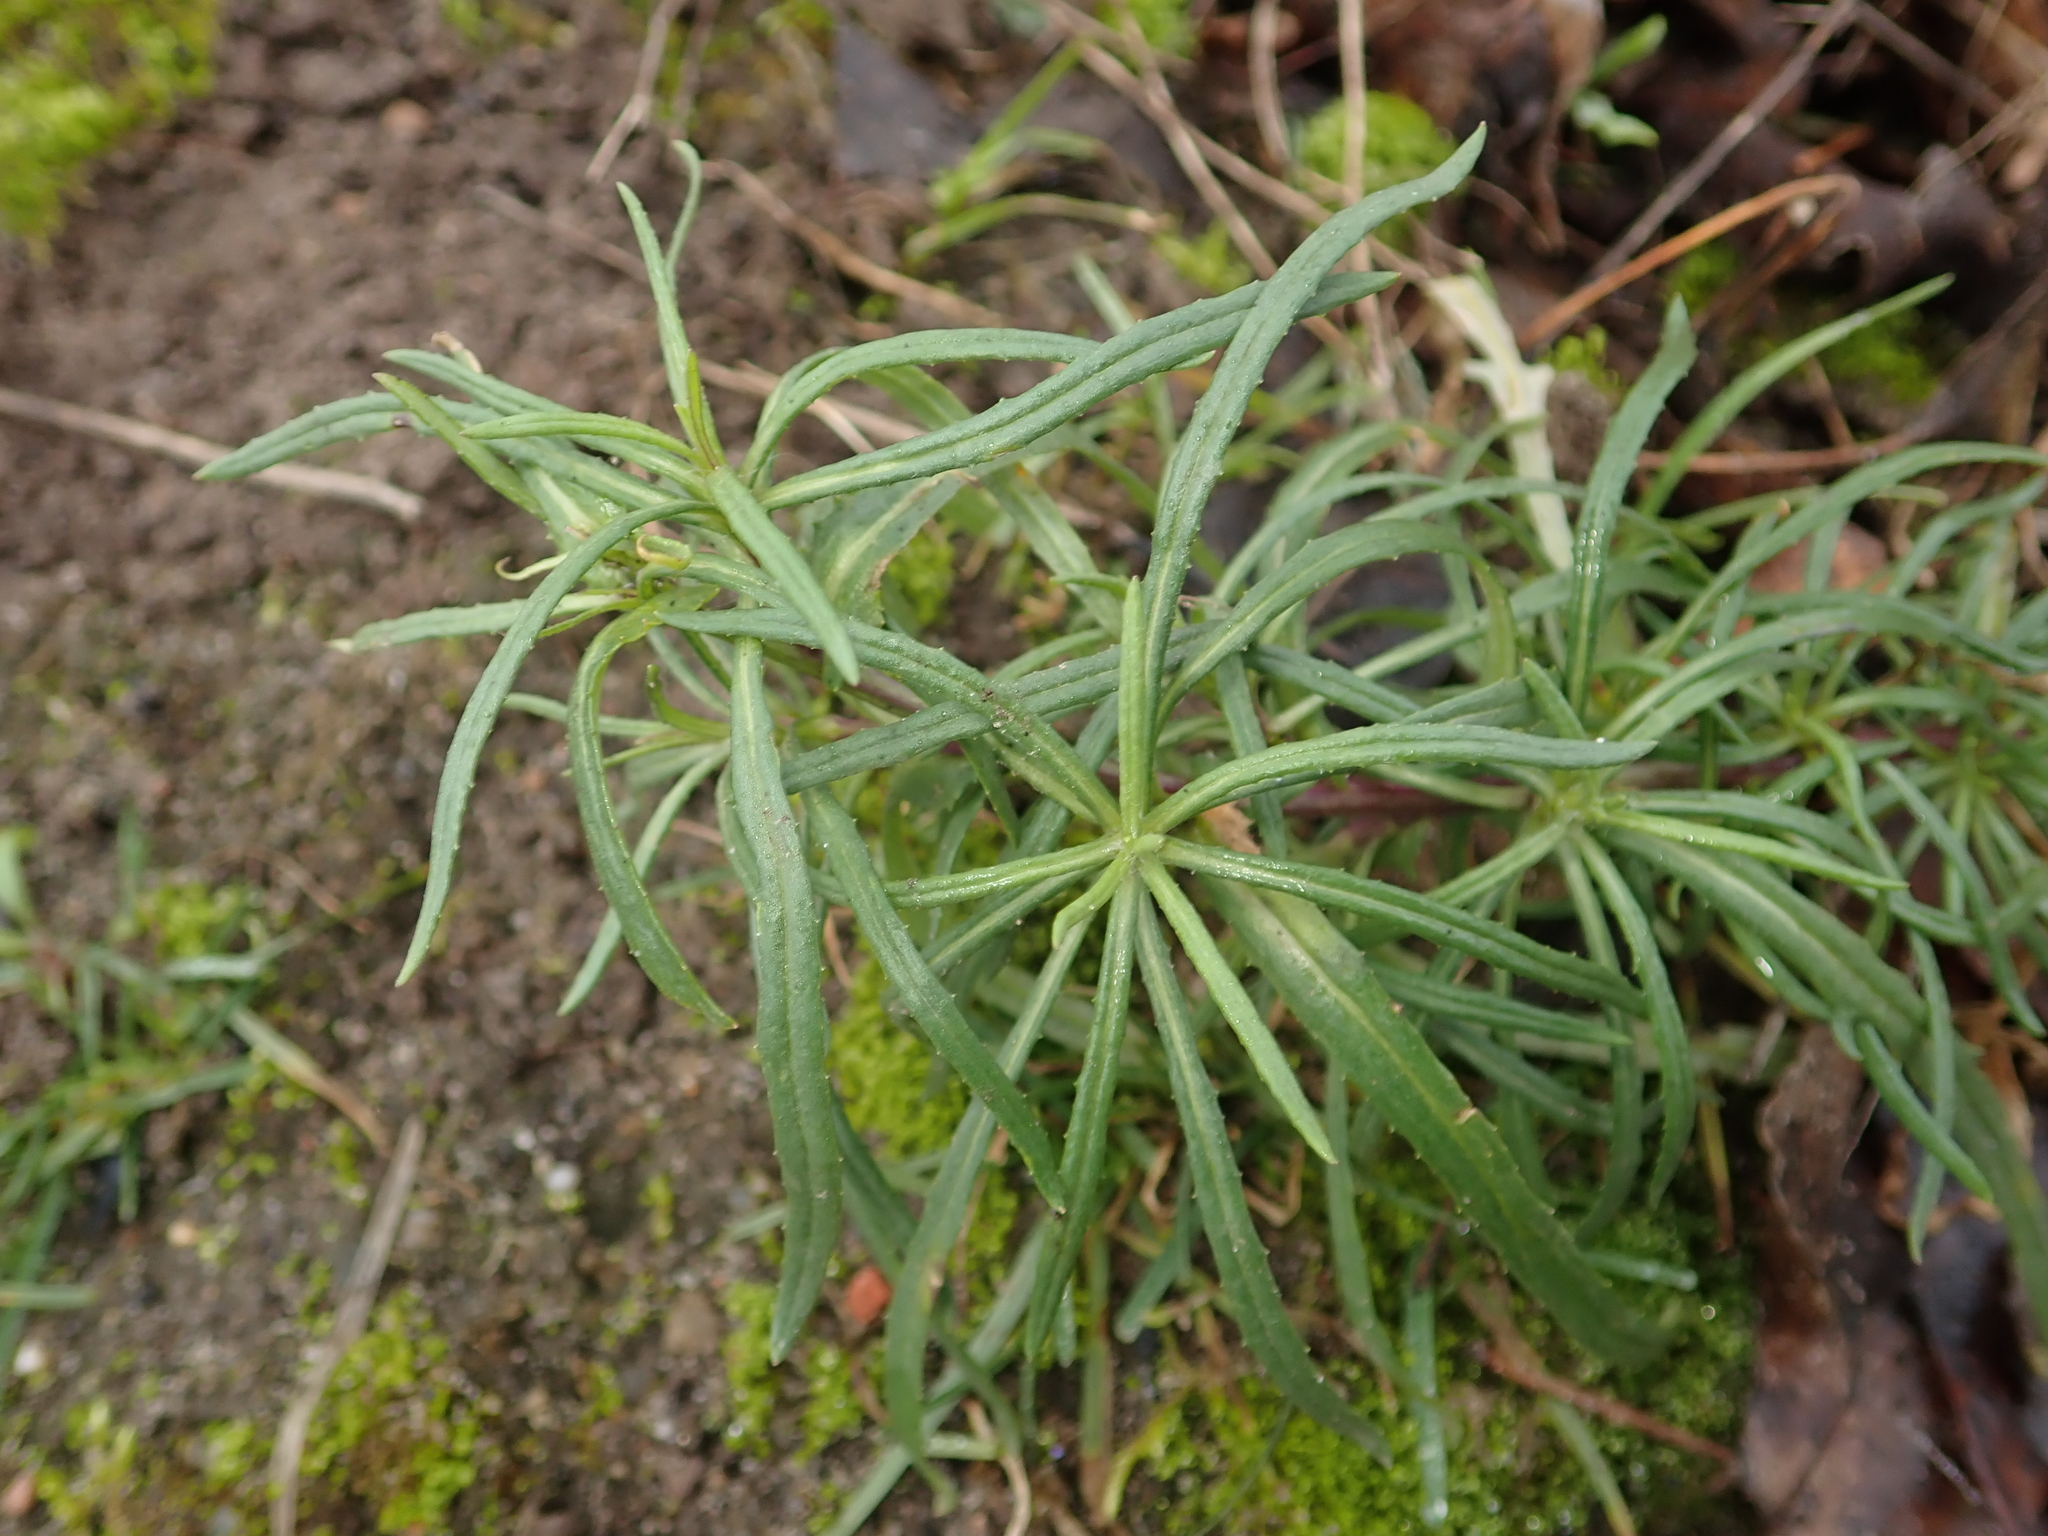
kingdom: Plantae
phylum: Tracheophyta
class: Magnoliopsida
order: Asterales
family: Asteraceae
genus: Senecio
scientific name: Senecio inaequidens
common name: Narrow-leaved ragwort
